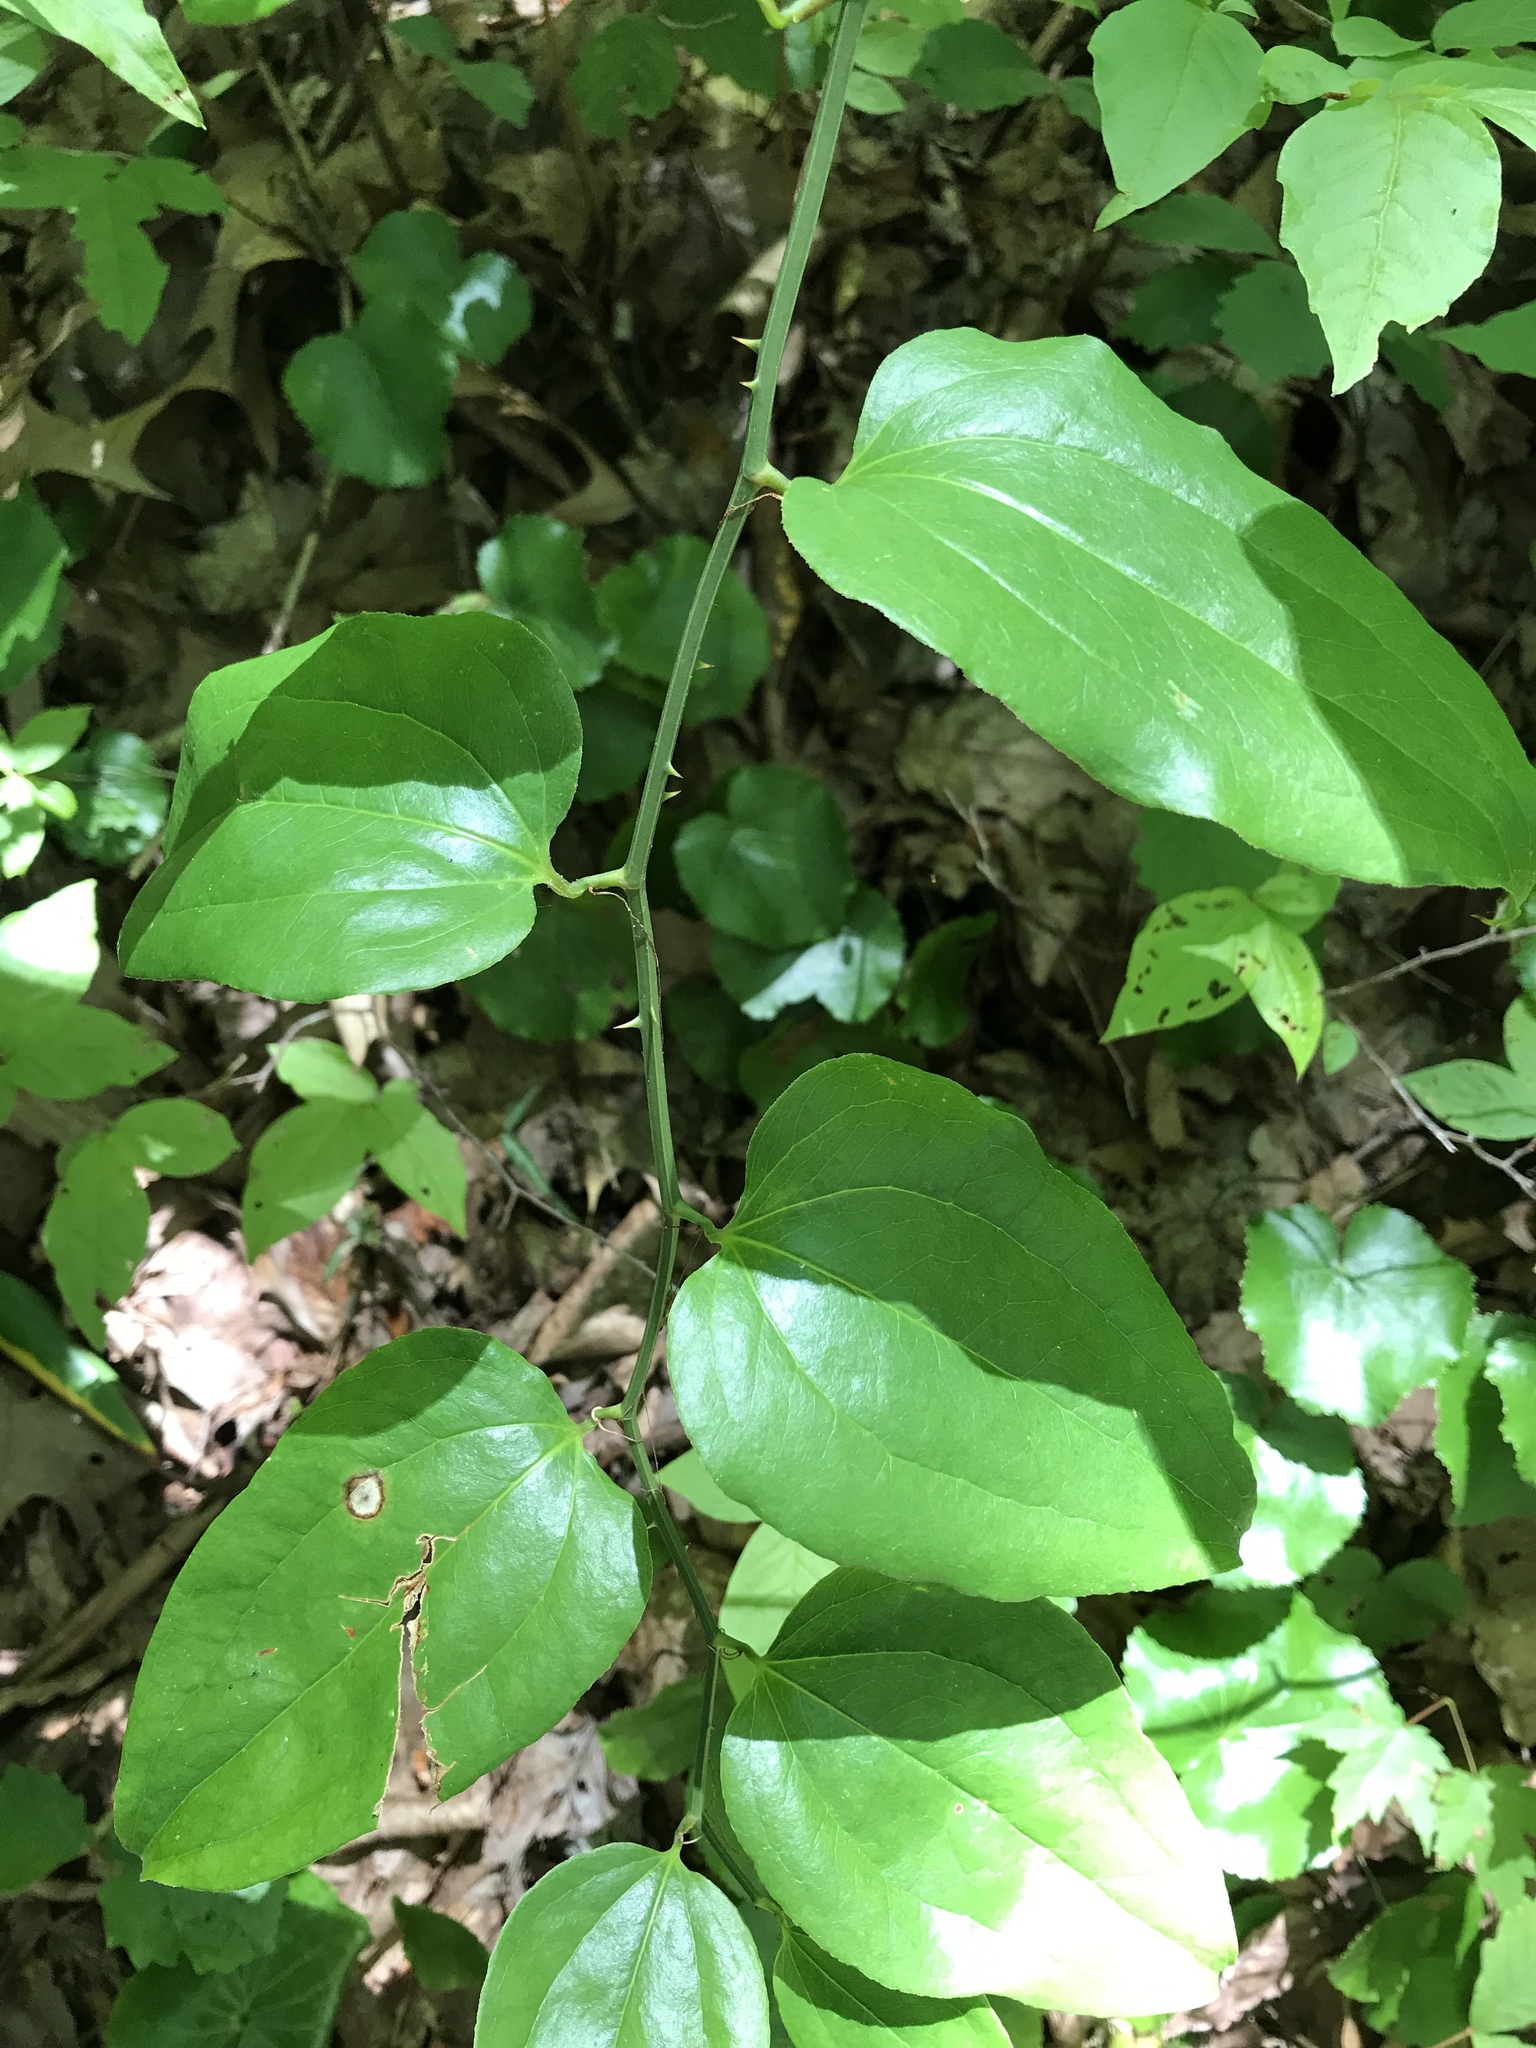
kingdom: Plantae
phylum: Tracheophyta
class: Liliopsida
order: Liliales
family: Smilacaceae
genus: Smilax
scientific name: Smilax rotundifolia
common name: Bullbriar
